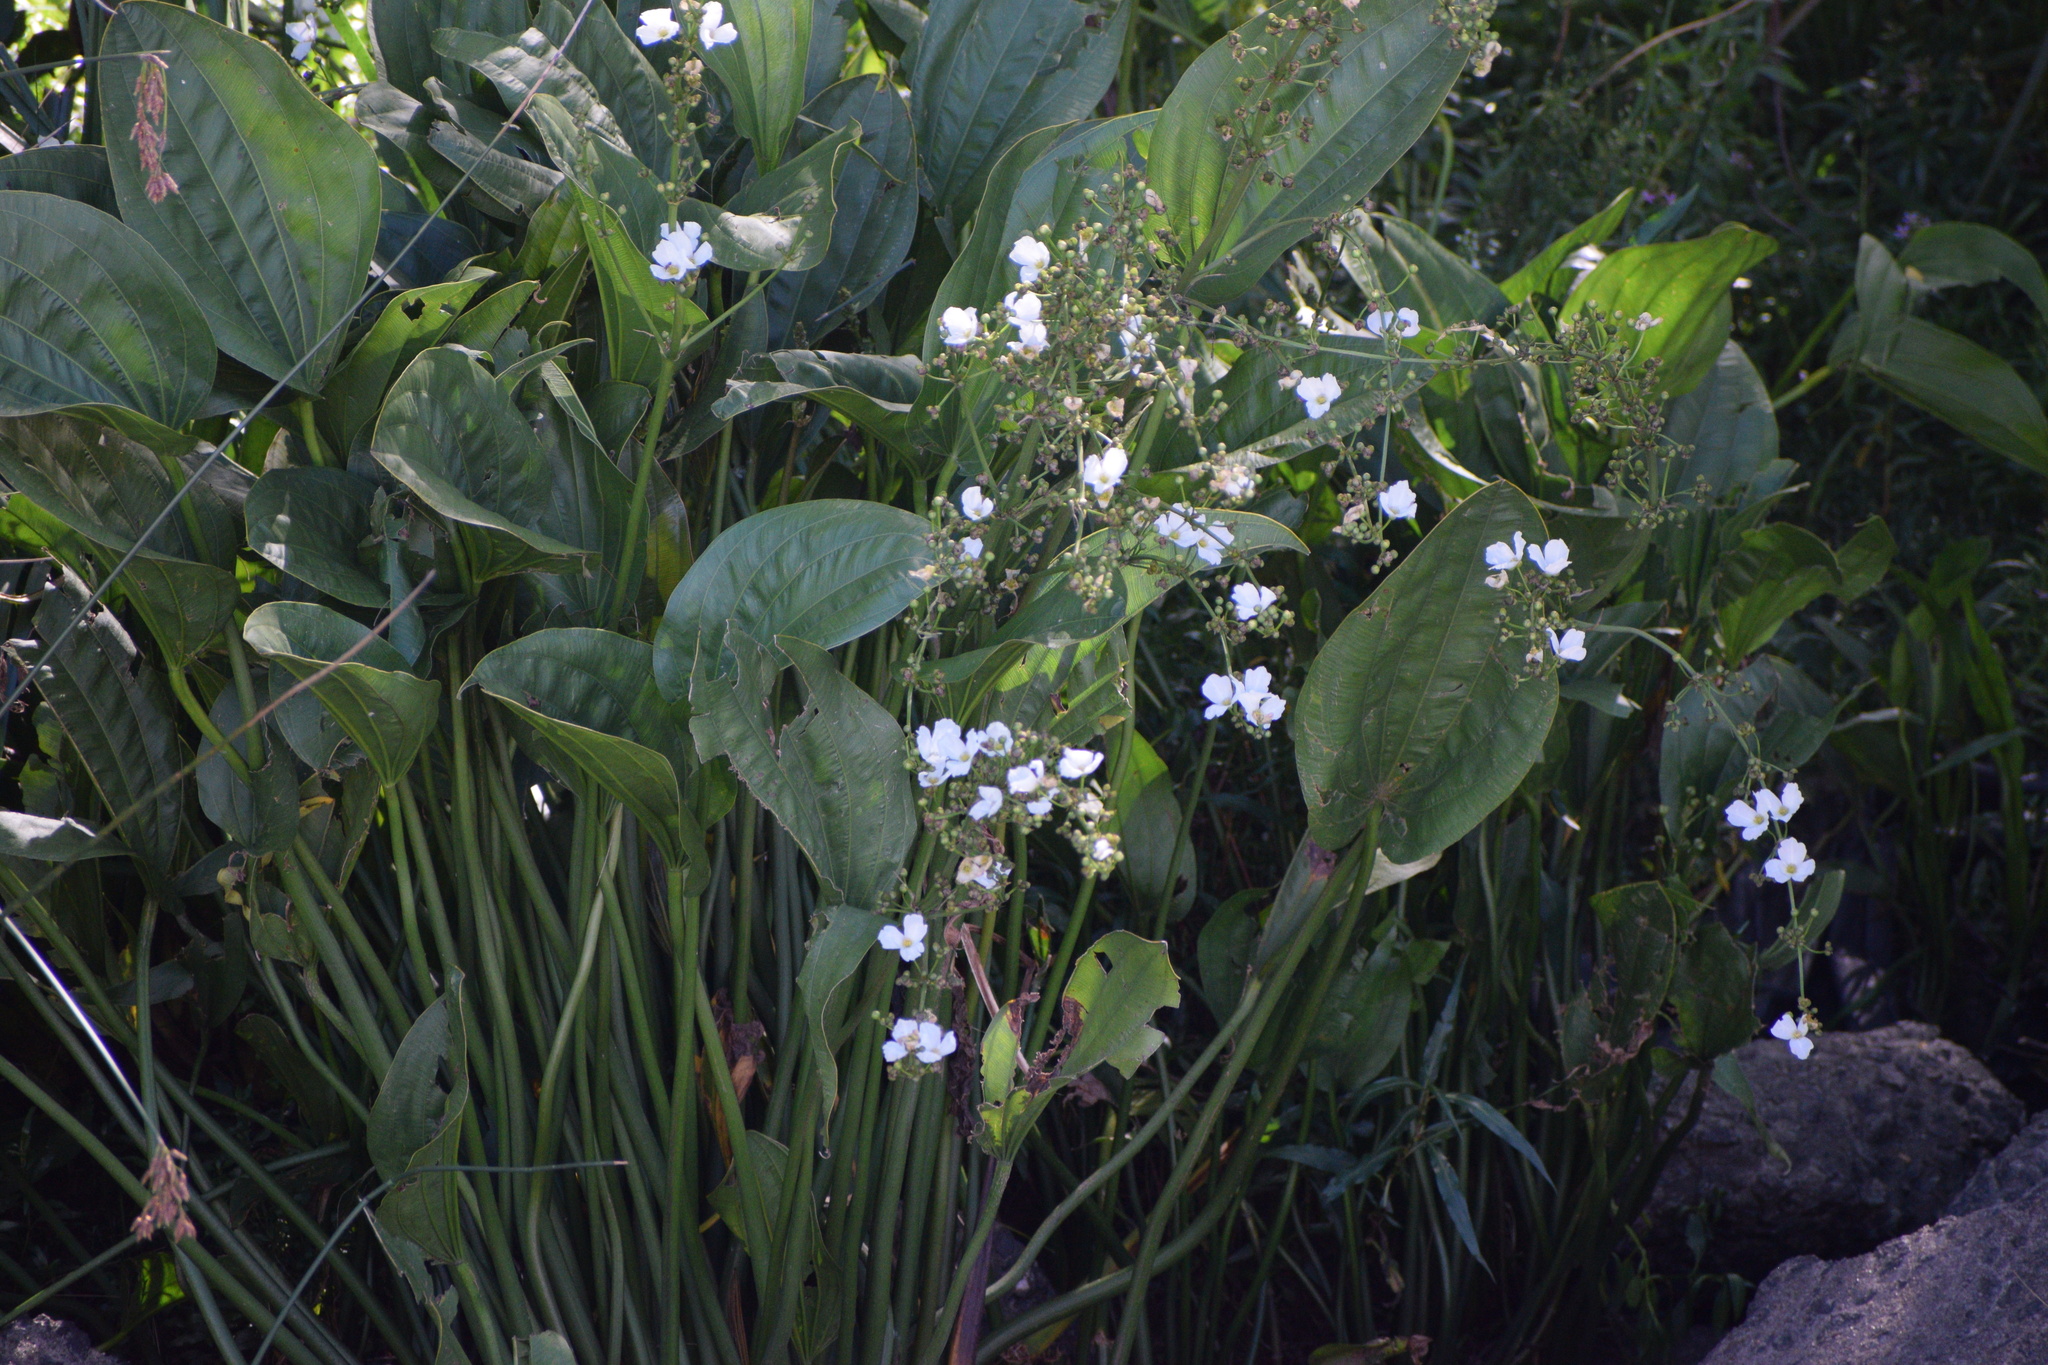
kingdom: Plantae
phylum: Tracheophyta
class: Liliopsida
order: Alismatales
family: Alismataceae
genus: Aquarius
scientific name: Aquarius grandiflorus
